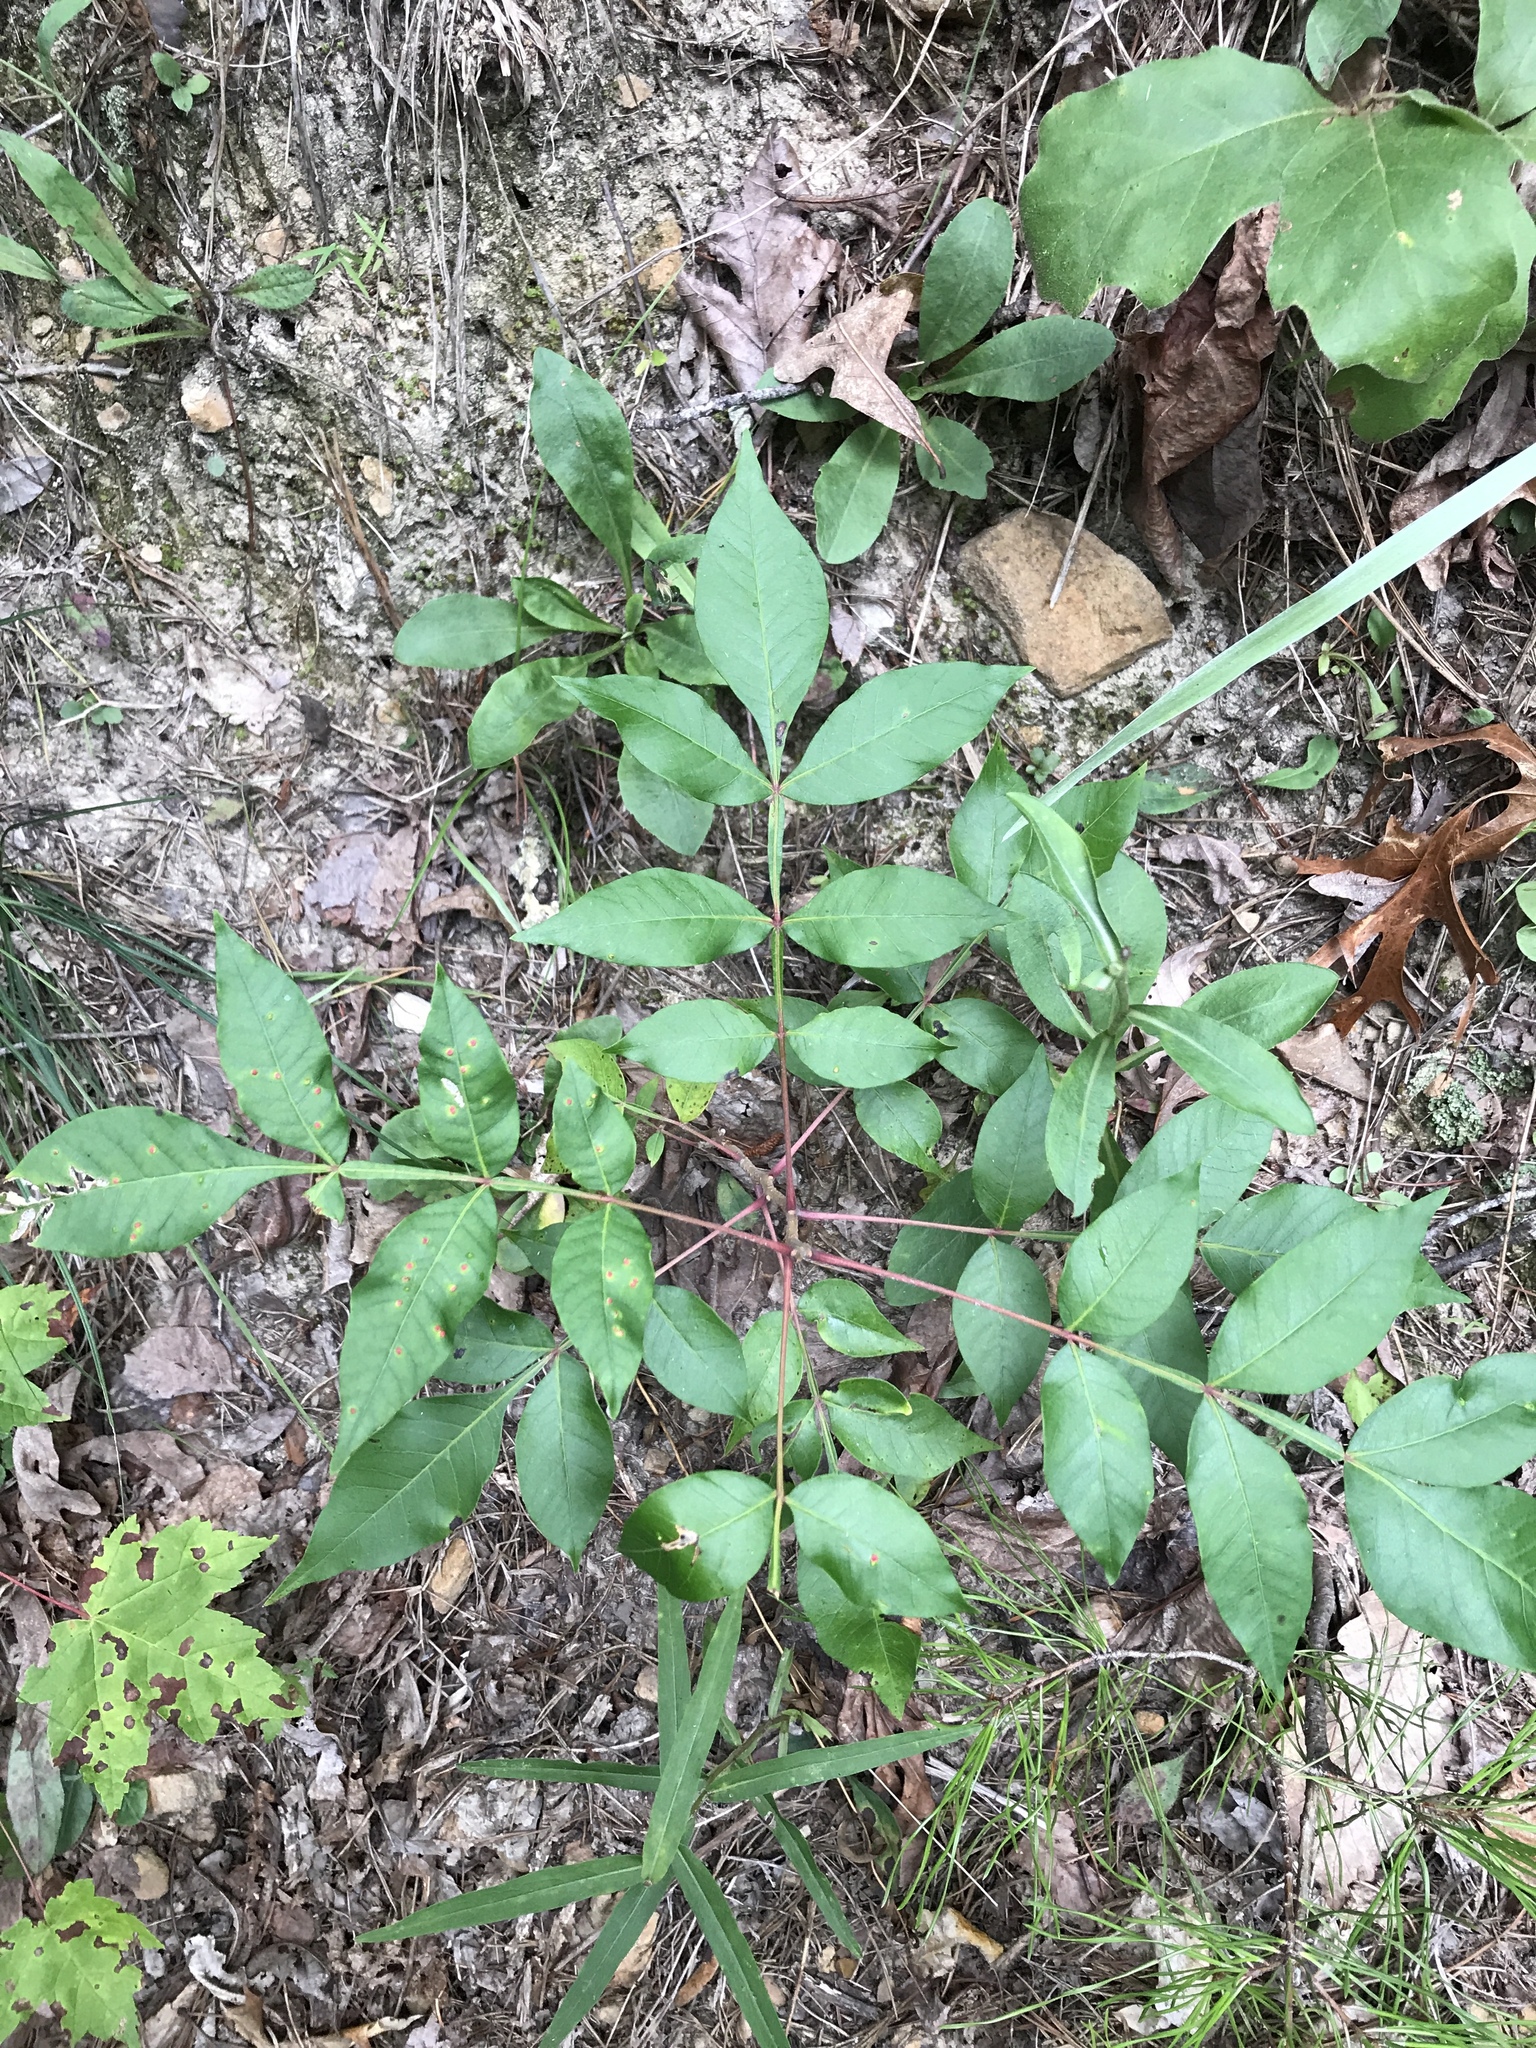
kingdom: Plantae
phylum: Tracheophyta
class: Magnoliopsida
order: Sapindales
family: Anacardiaceae
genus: Rhus
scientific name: Rhus copallina
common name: Shining sumac
